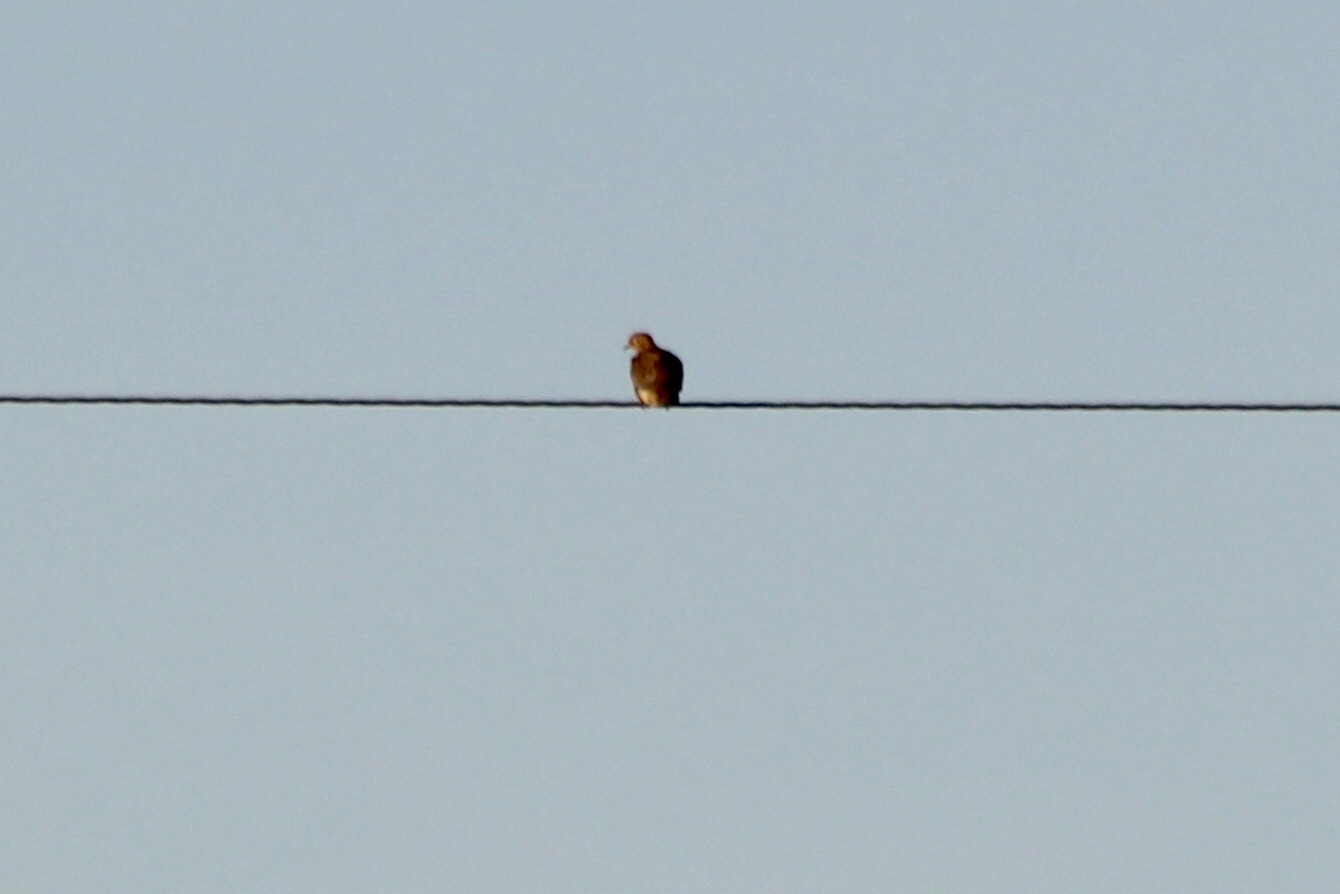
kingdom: Animalia
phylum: Chordata
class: Aves
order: Columbiformes
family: Columbidae
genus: Zenaida
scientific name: Zenaida macroura
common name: Mourning dove
